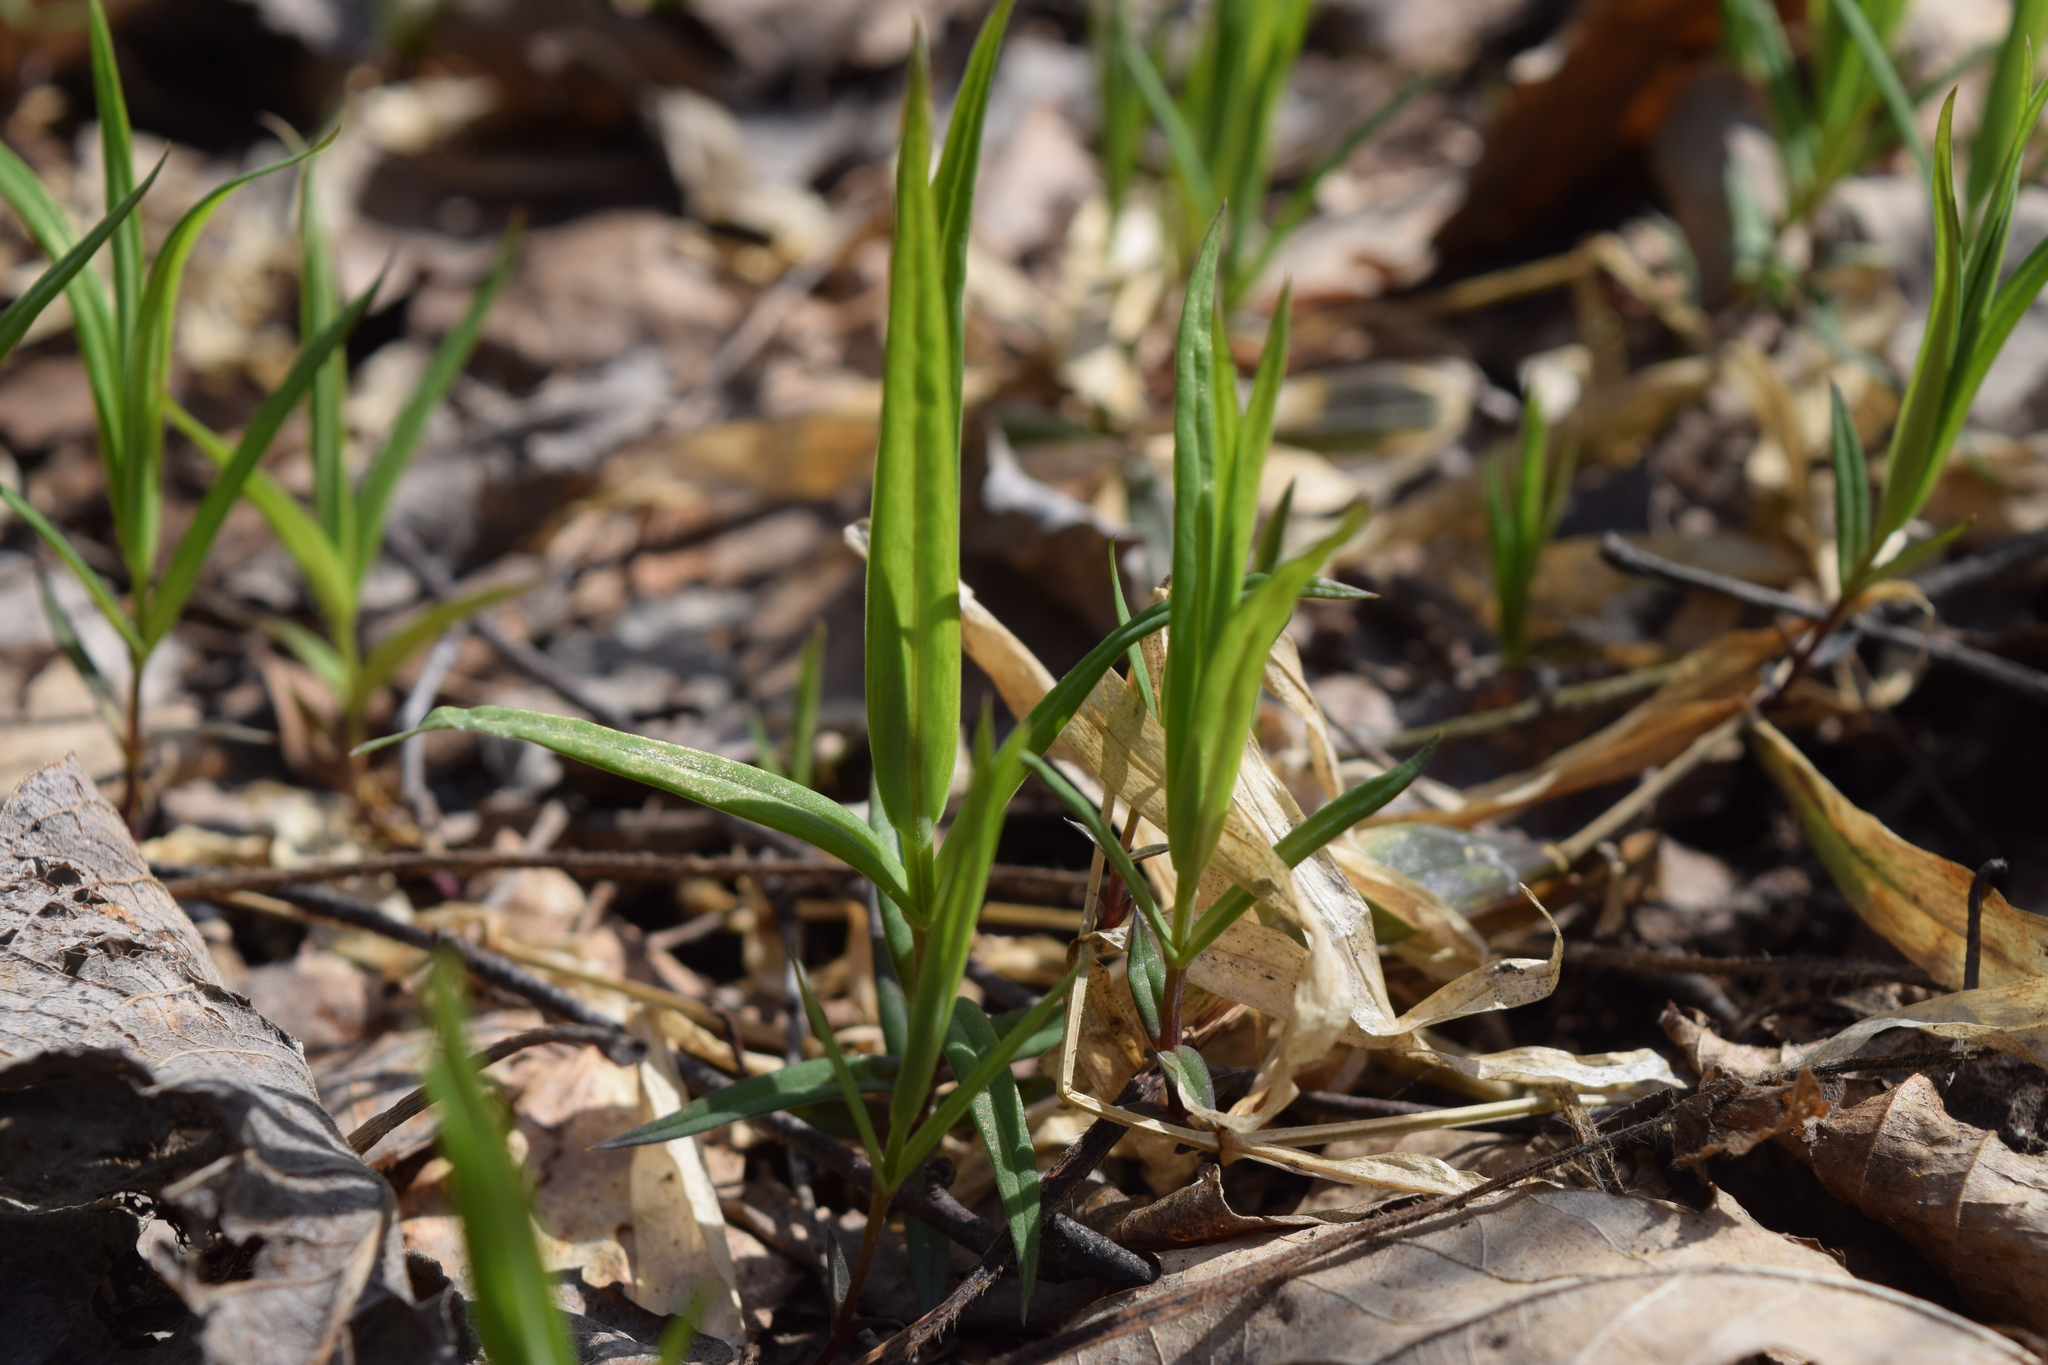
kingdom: Plantae
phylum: Tracheophyta
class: Magnoliopsida
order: Caryophyllales
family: Caryophyllaceae
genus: Rabelera
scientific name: Rabelera holostea
